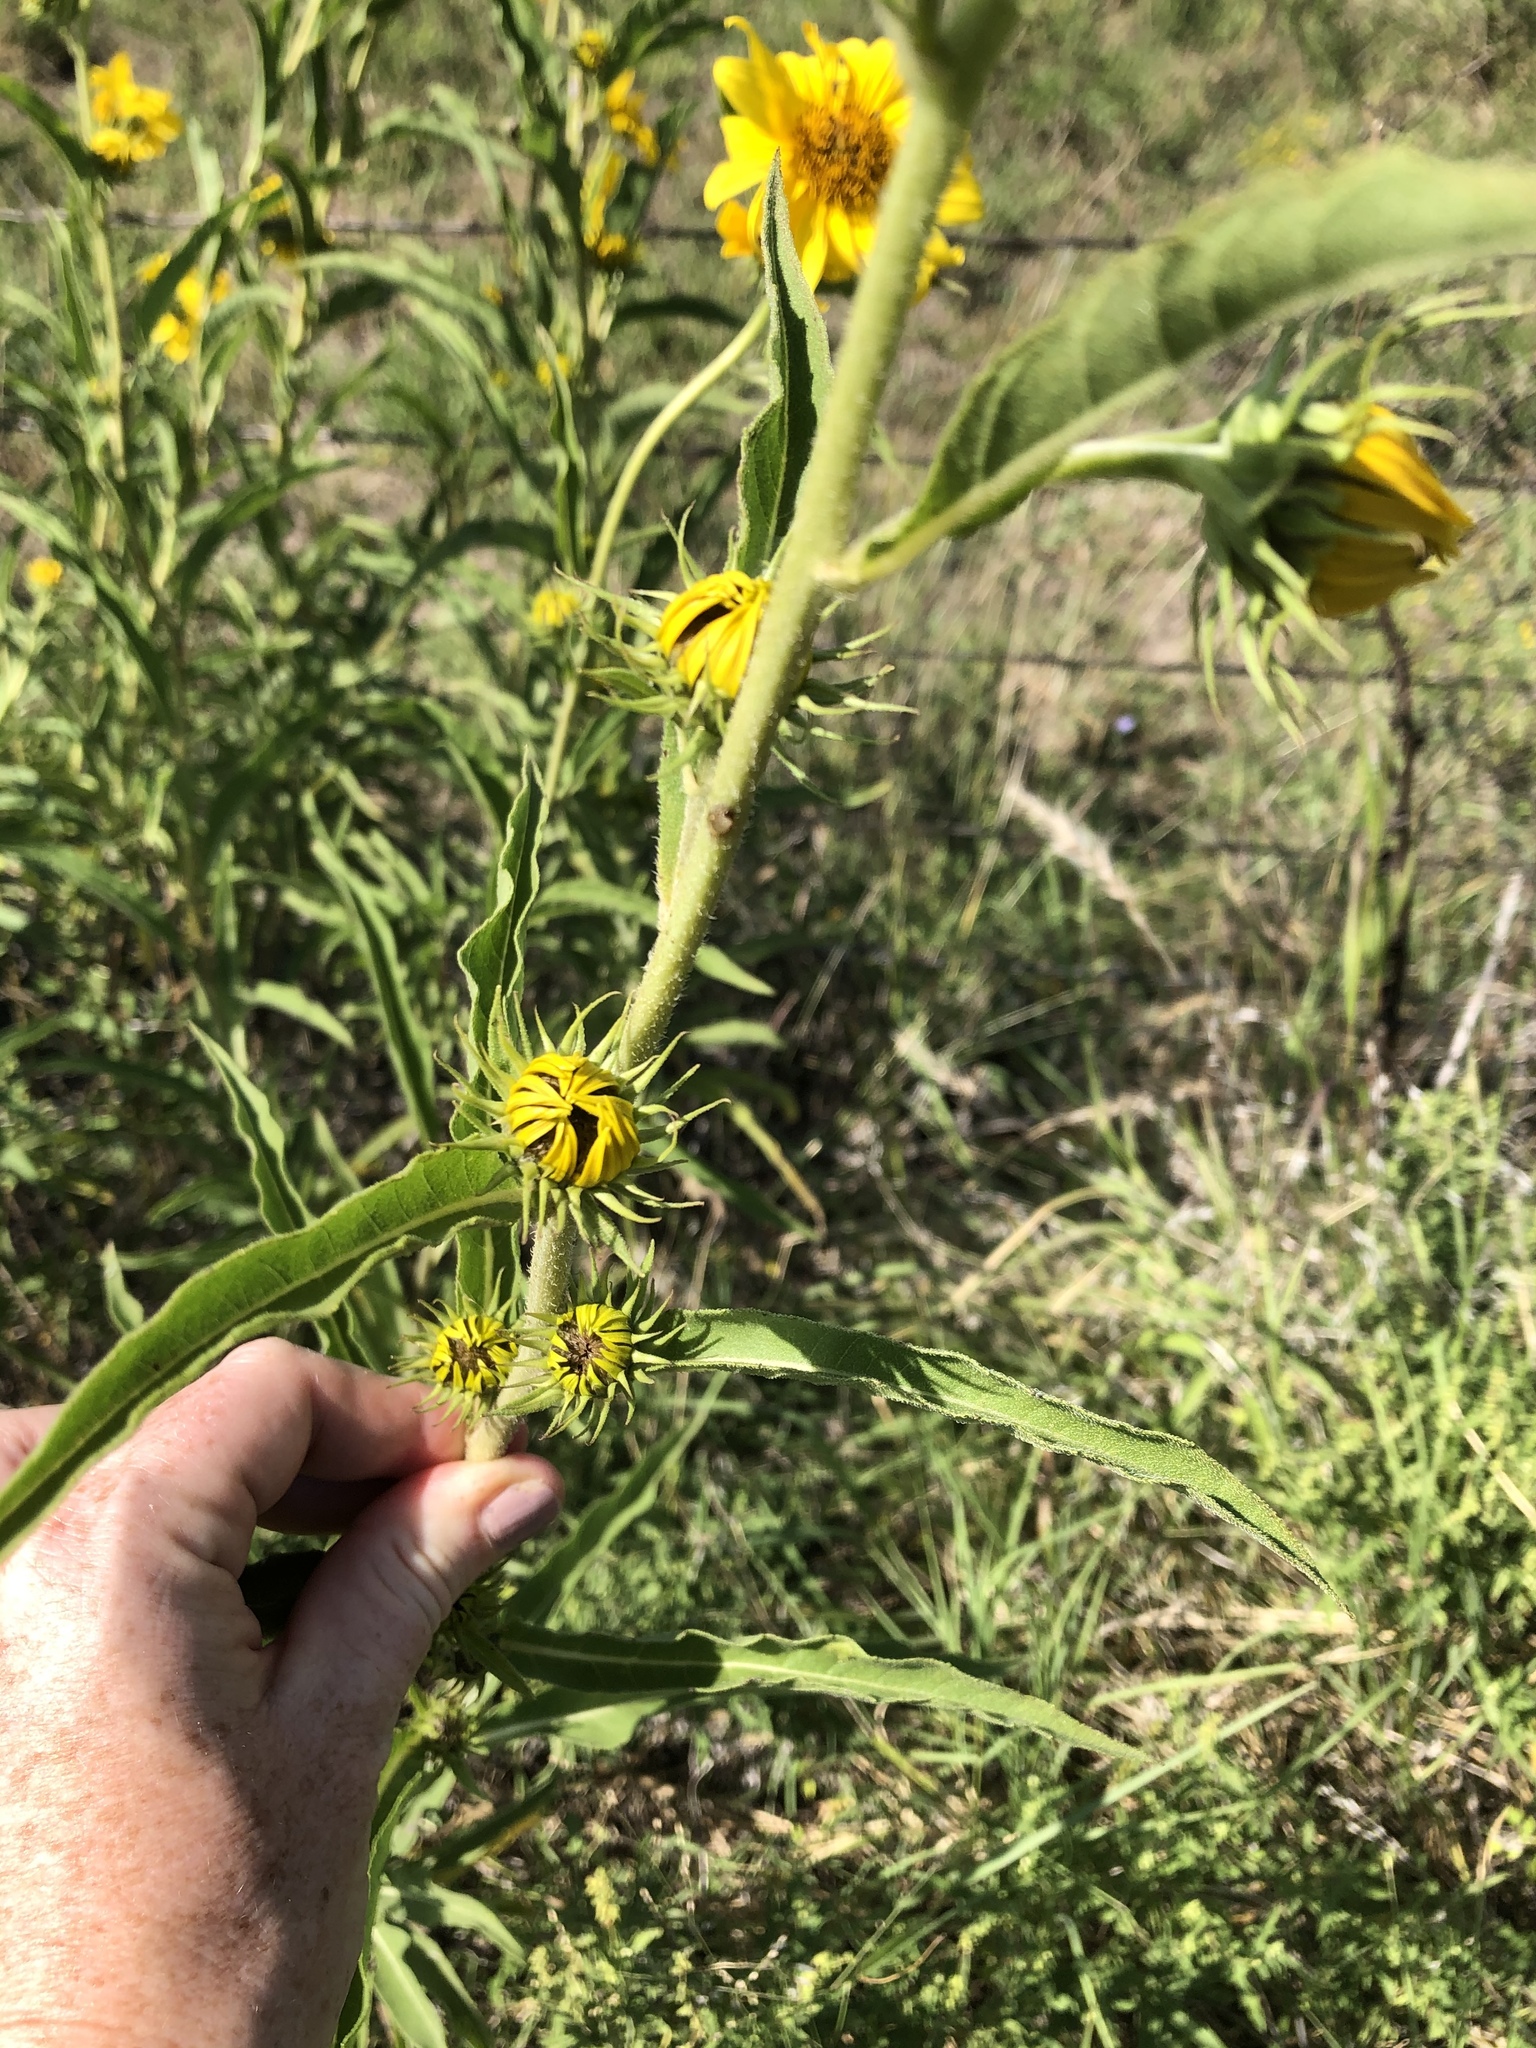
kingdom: Plantae
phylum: Tracheophyta
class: Magnoliopsida
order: Asterales
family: Asteraceae
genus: Helianthus
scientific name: Helianthus maximiliani
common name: Maximilian's sunflower
